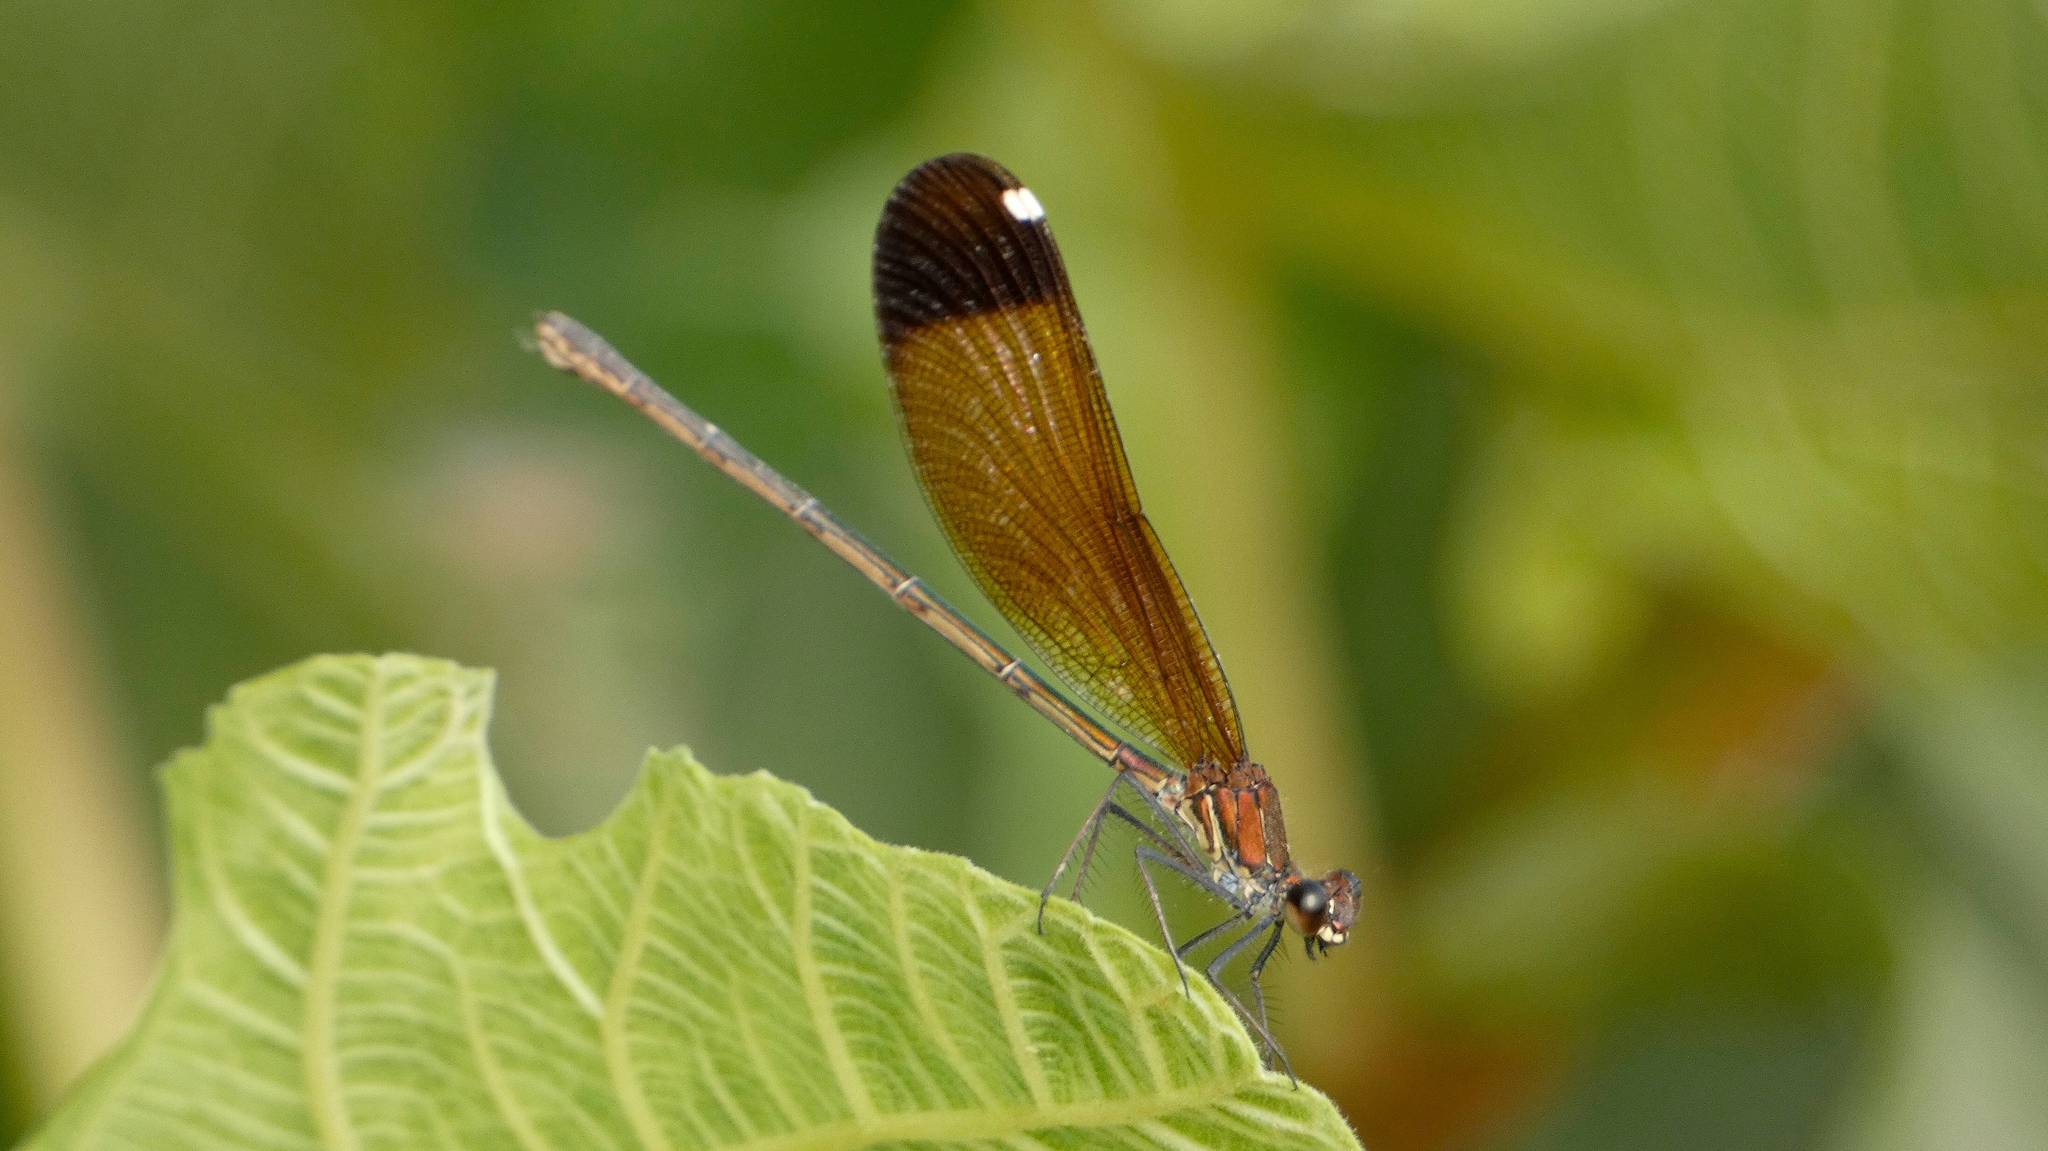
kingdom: Animalia
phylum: Arthropoda
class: Insecta
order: Odonata
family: Calopterygidae
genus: Calopteryx
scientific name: Calopteryx haemorrhoidalis
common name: Copper demoiselle
